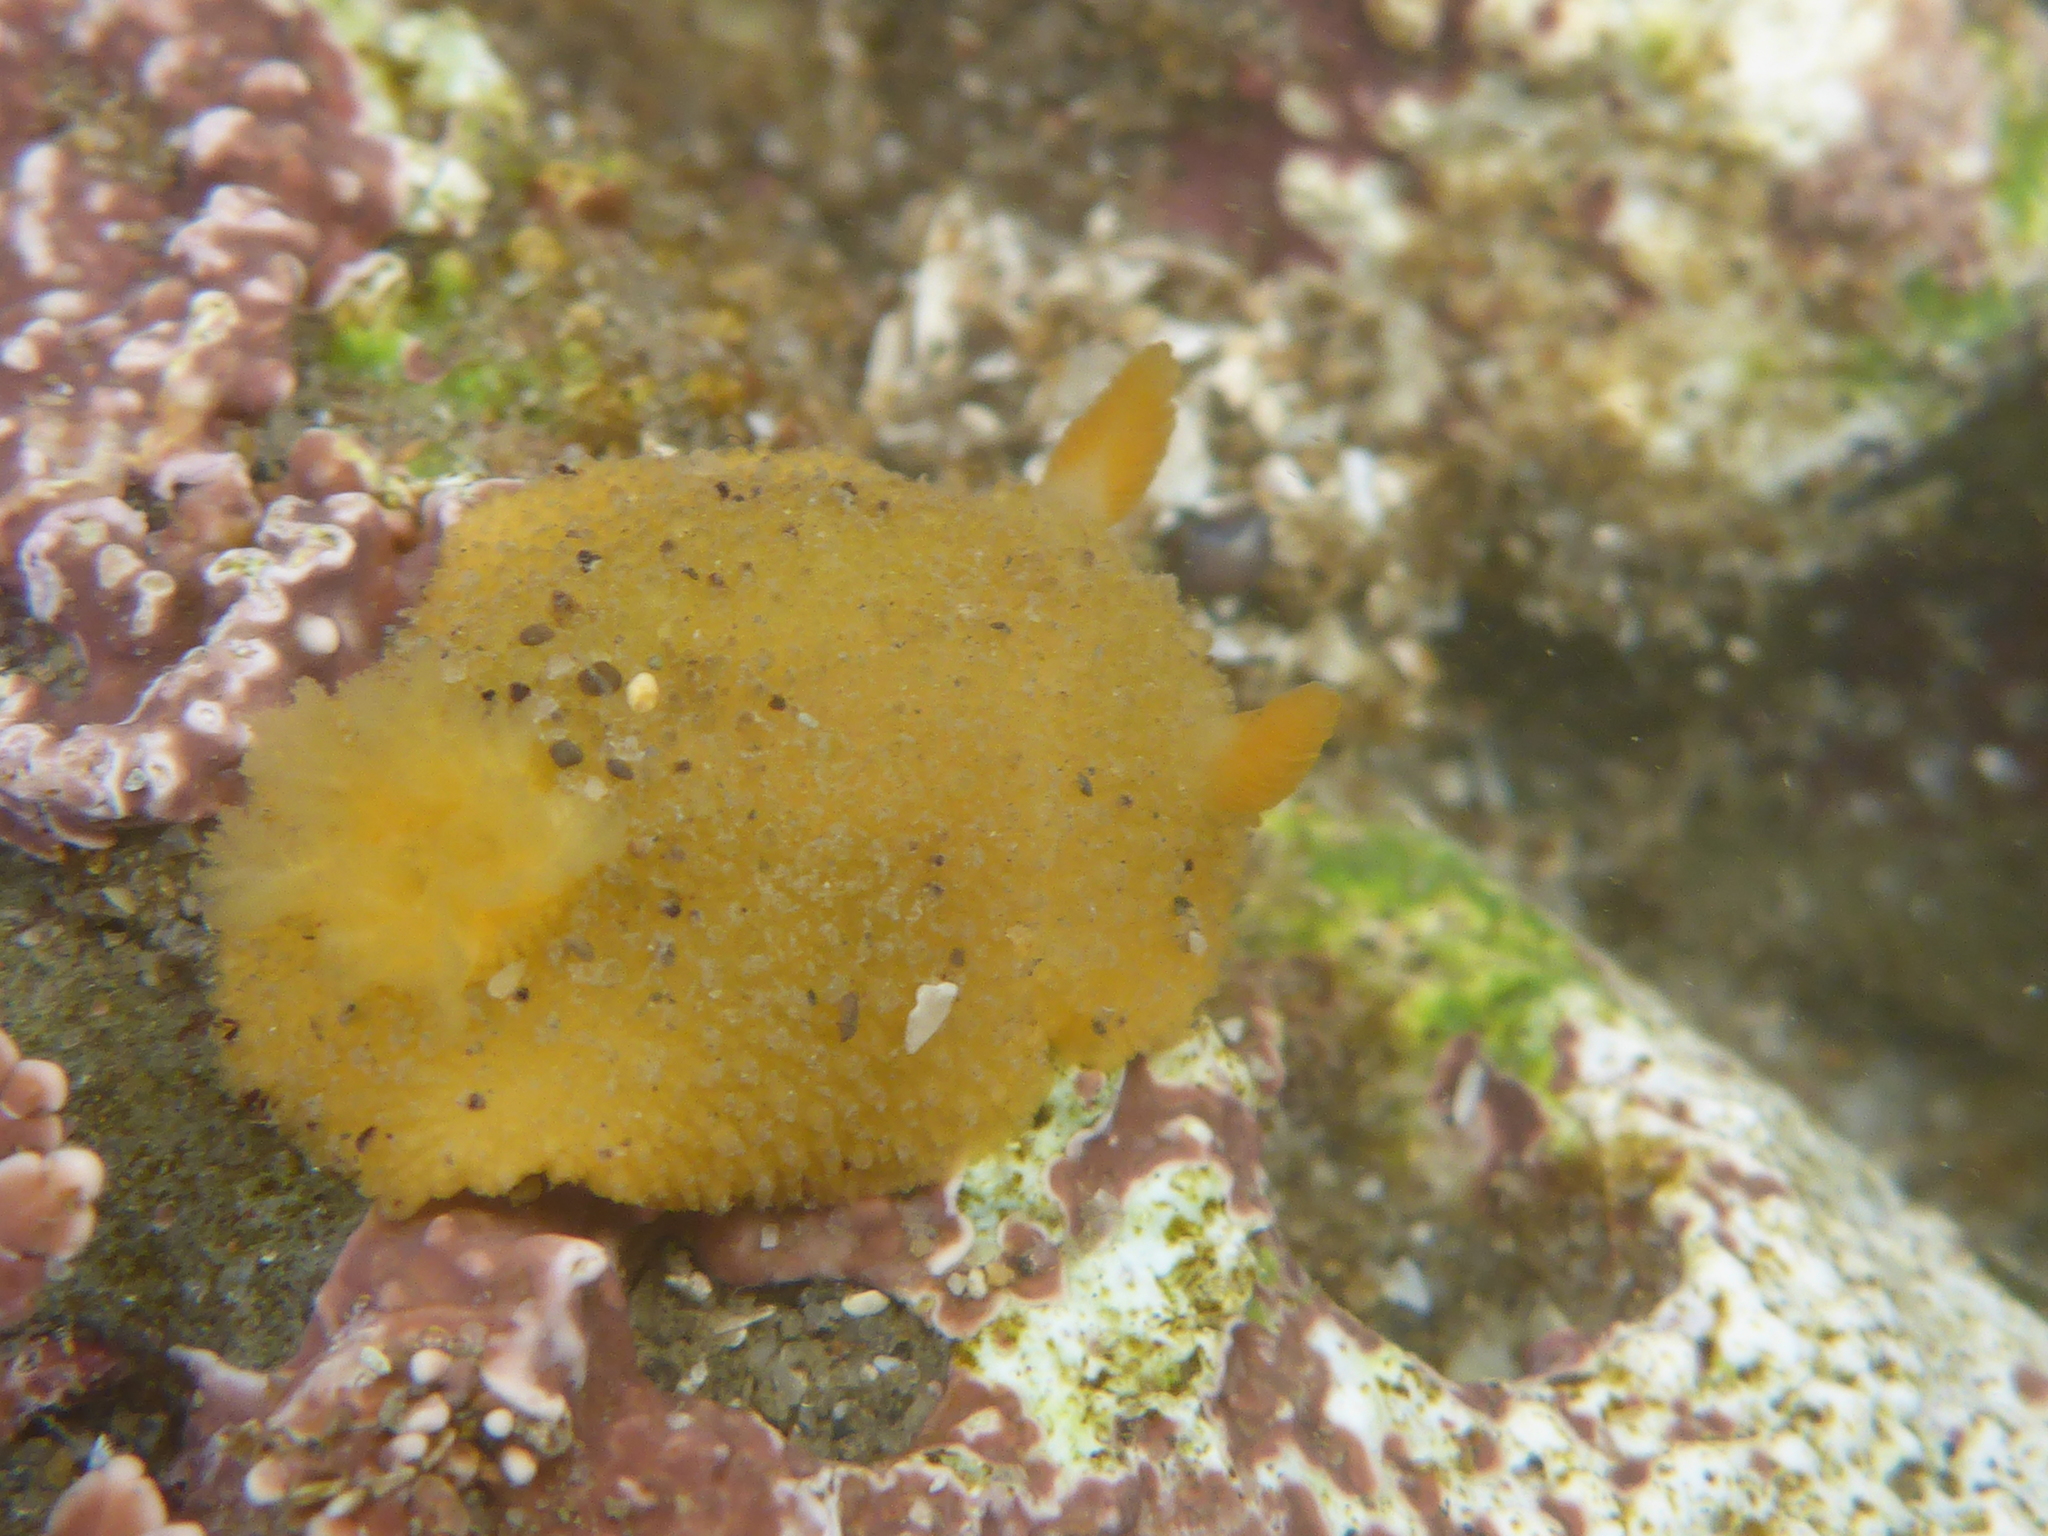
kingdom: Animalia
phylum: Mollusca
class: Gastropoda
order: Nudibranchia
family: Dorididae
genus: Doris
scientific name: Doris montereyensis
